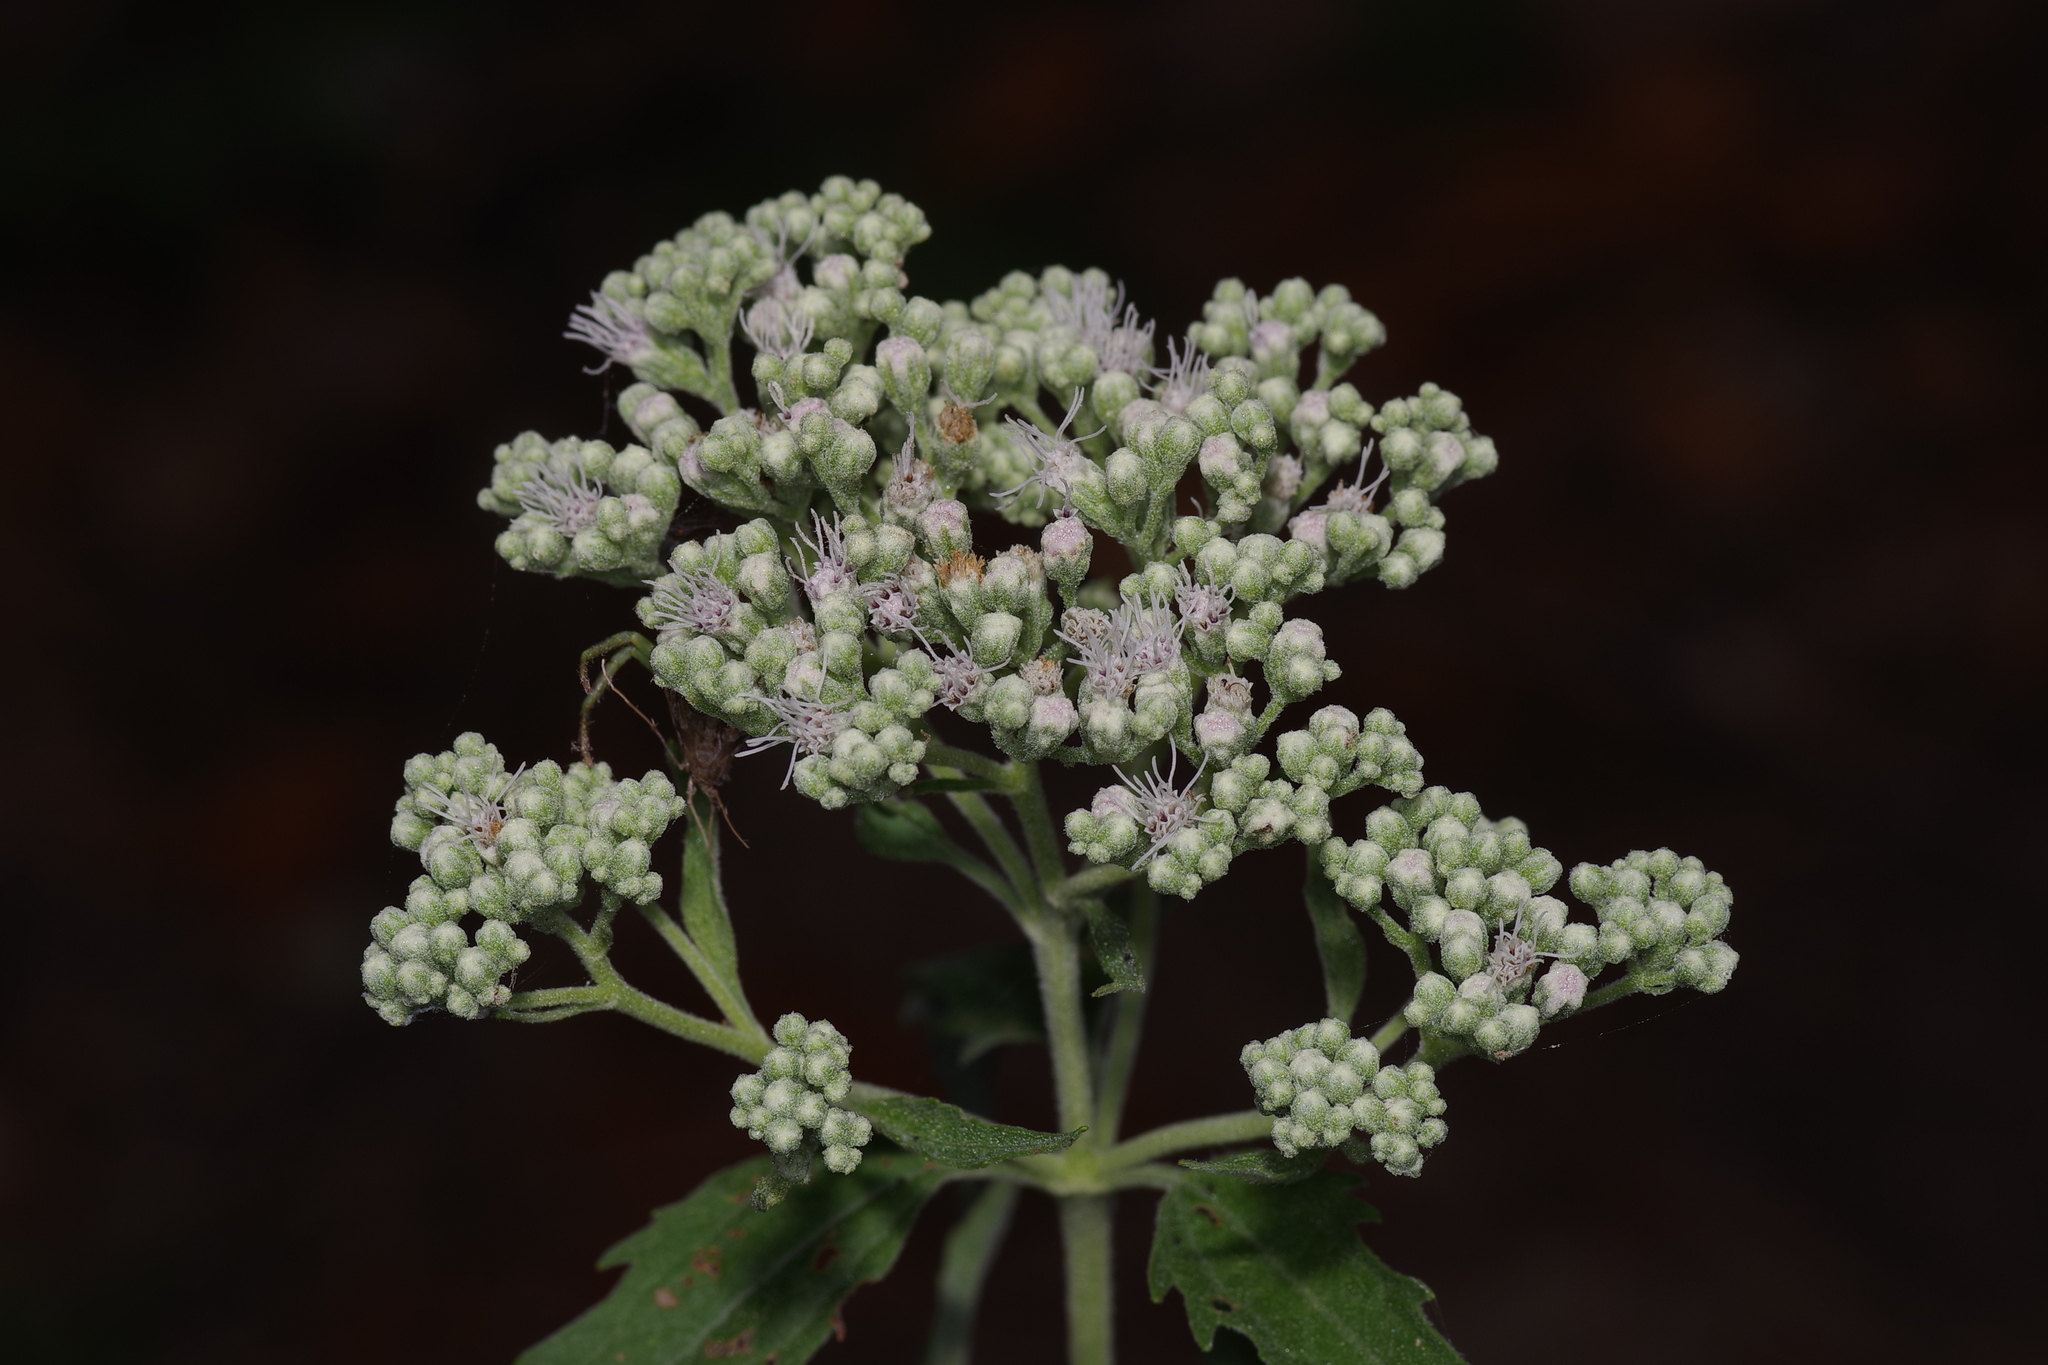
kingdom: Plantae
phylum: Tracheophyta
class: Magnoliopsida
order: Asterales
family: Asteraceae
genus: Eupatorium
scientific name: Eupatorium serotinum
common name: Late boneset
